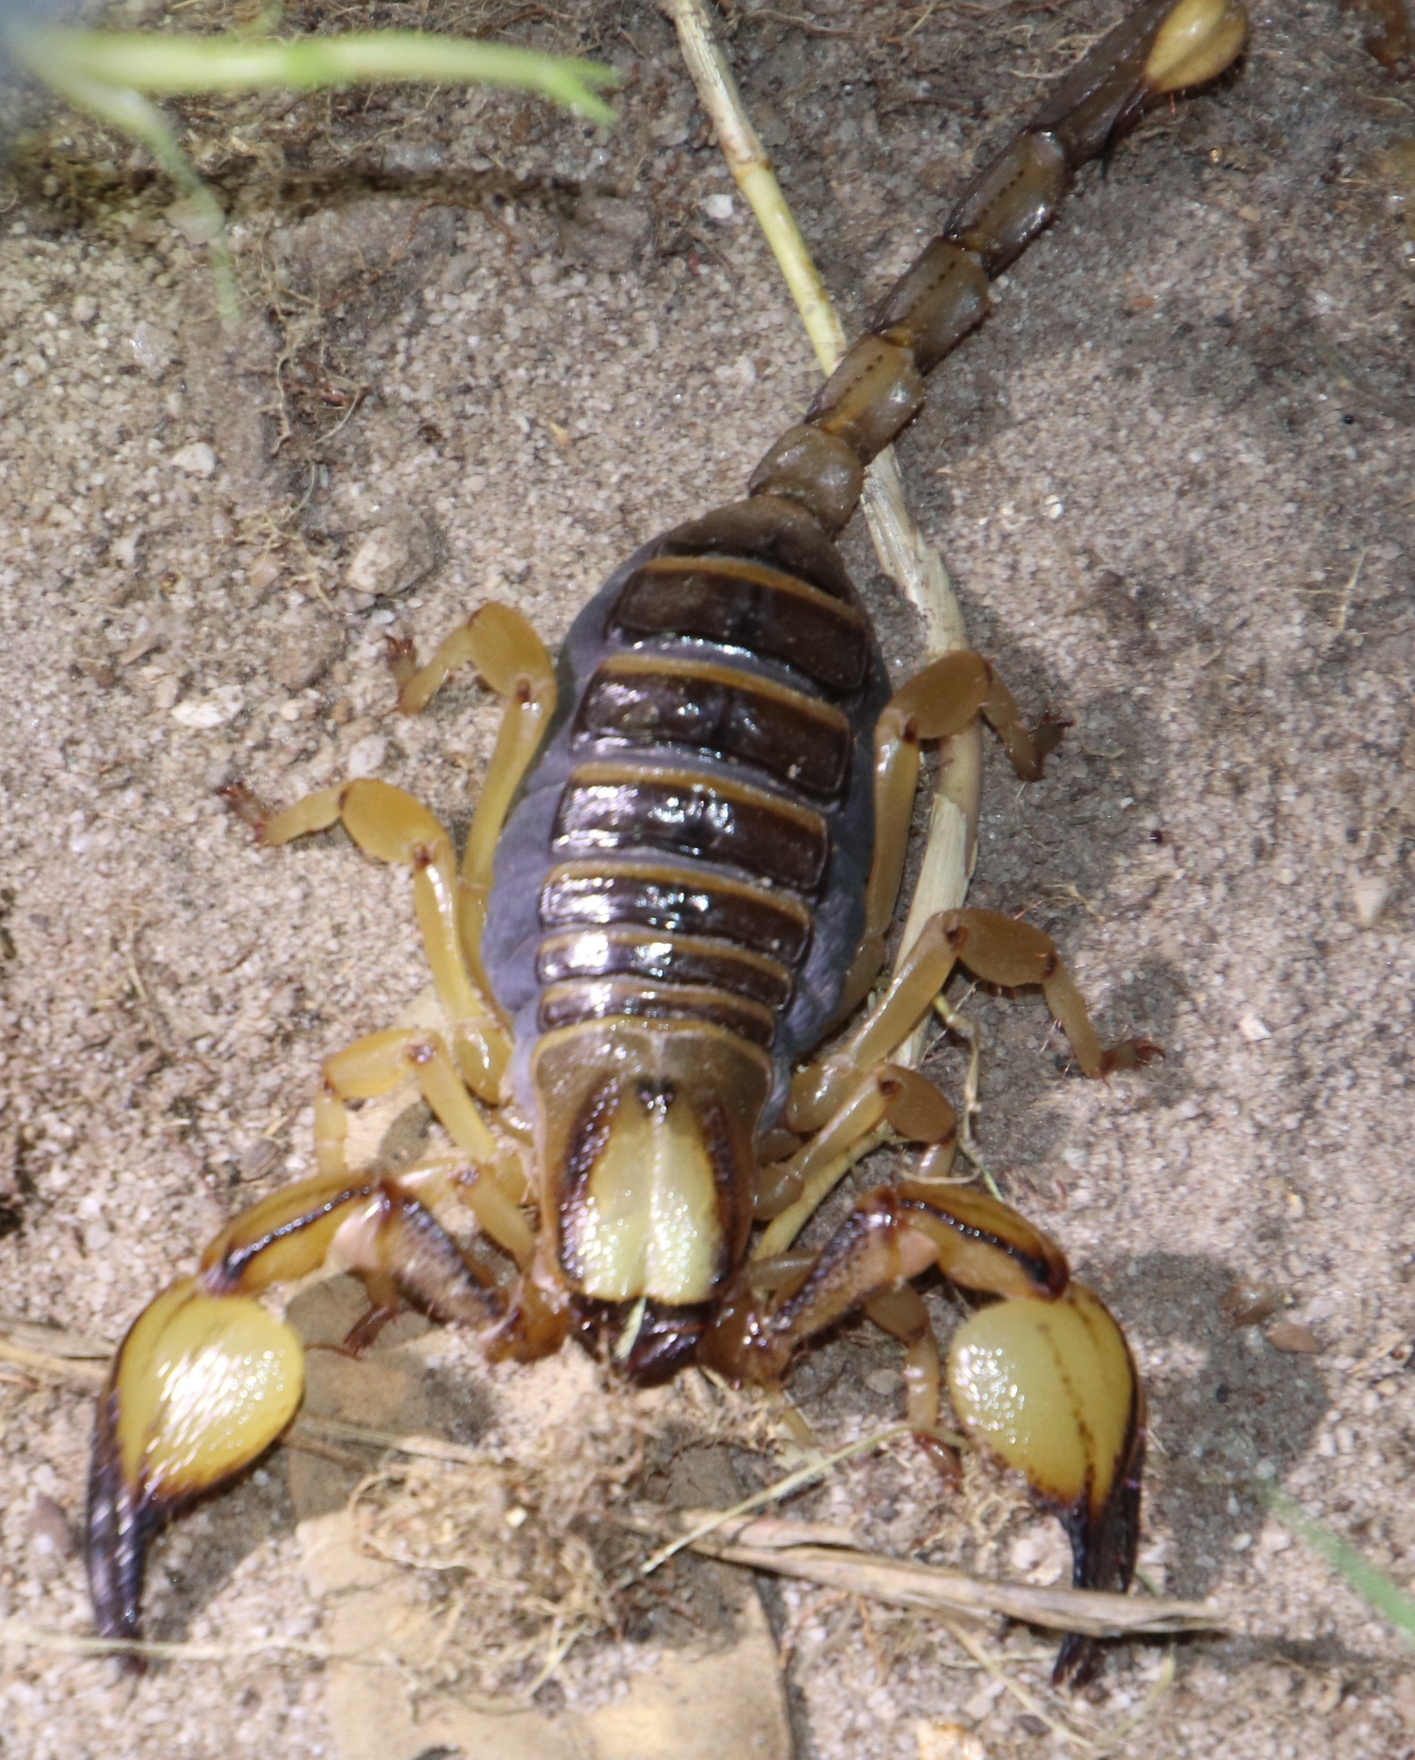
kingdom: Animalia
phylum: Arthropoda
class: Arachnida
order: Scorpiones
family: Scorpionidae
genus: Opistophthalmus
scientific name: Opistophthalmus capensis
